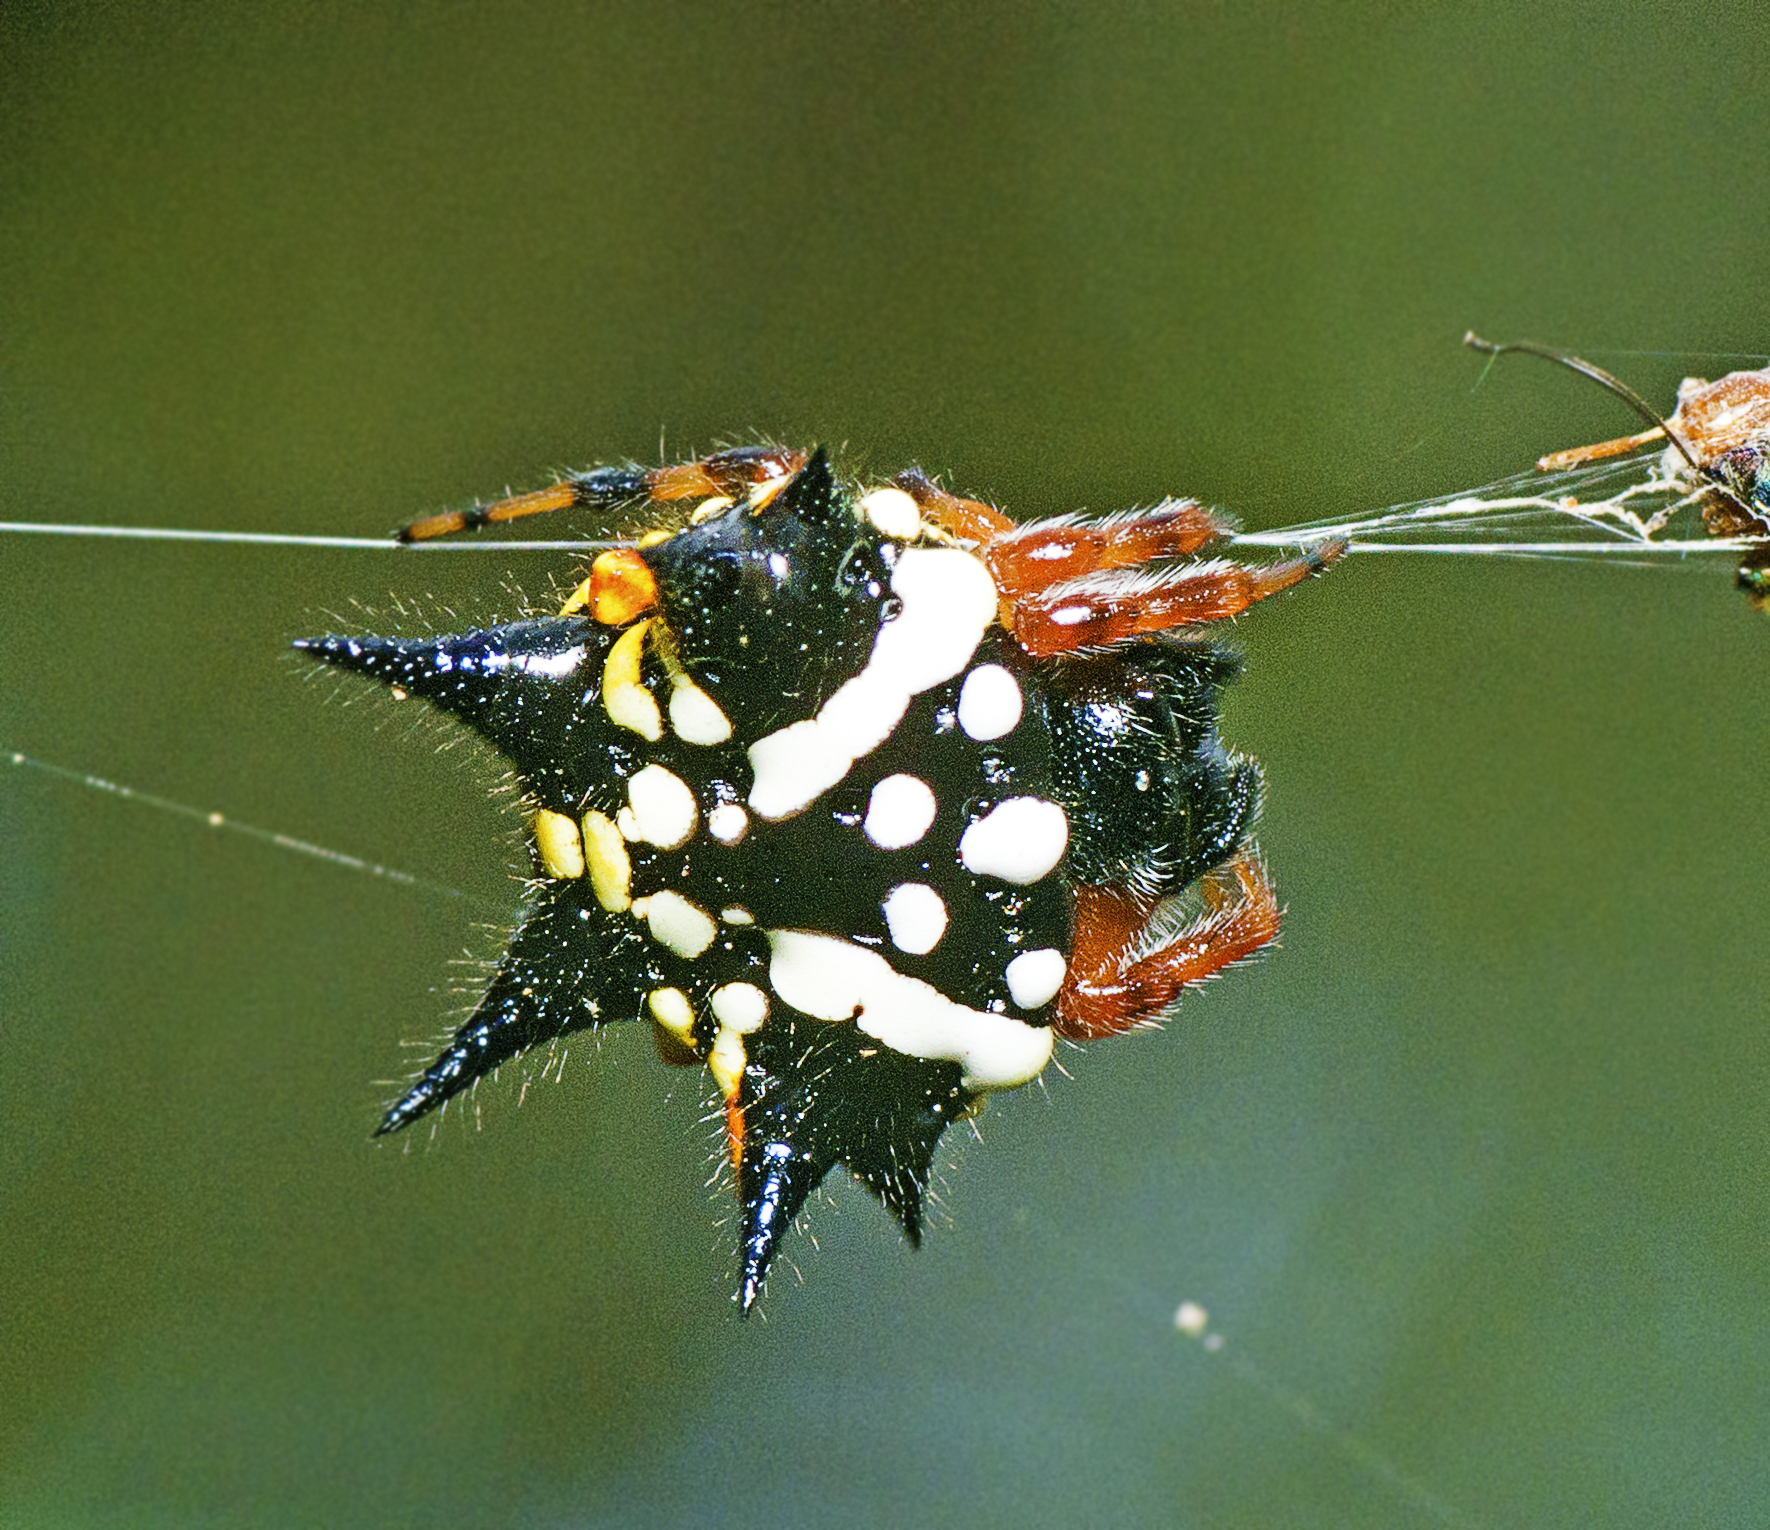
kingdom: Animalia
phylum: Arthropoda
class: Arachnida
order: Araneae
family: Araneidae
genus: Austracantha
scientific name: Austracantha minax
